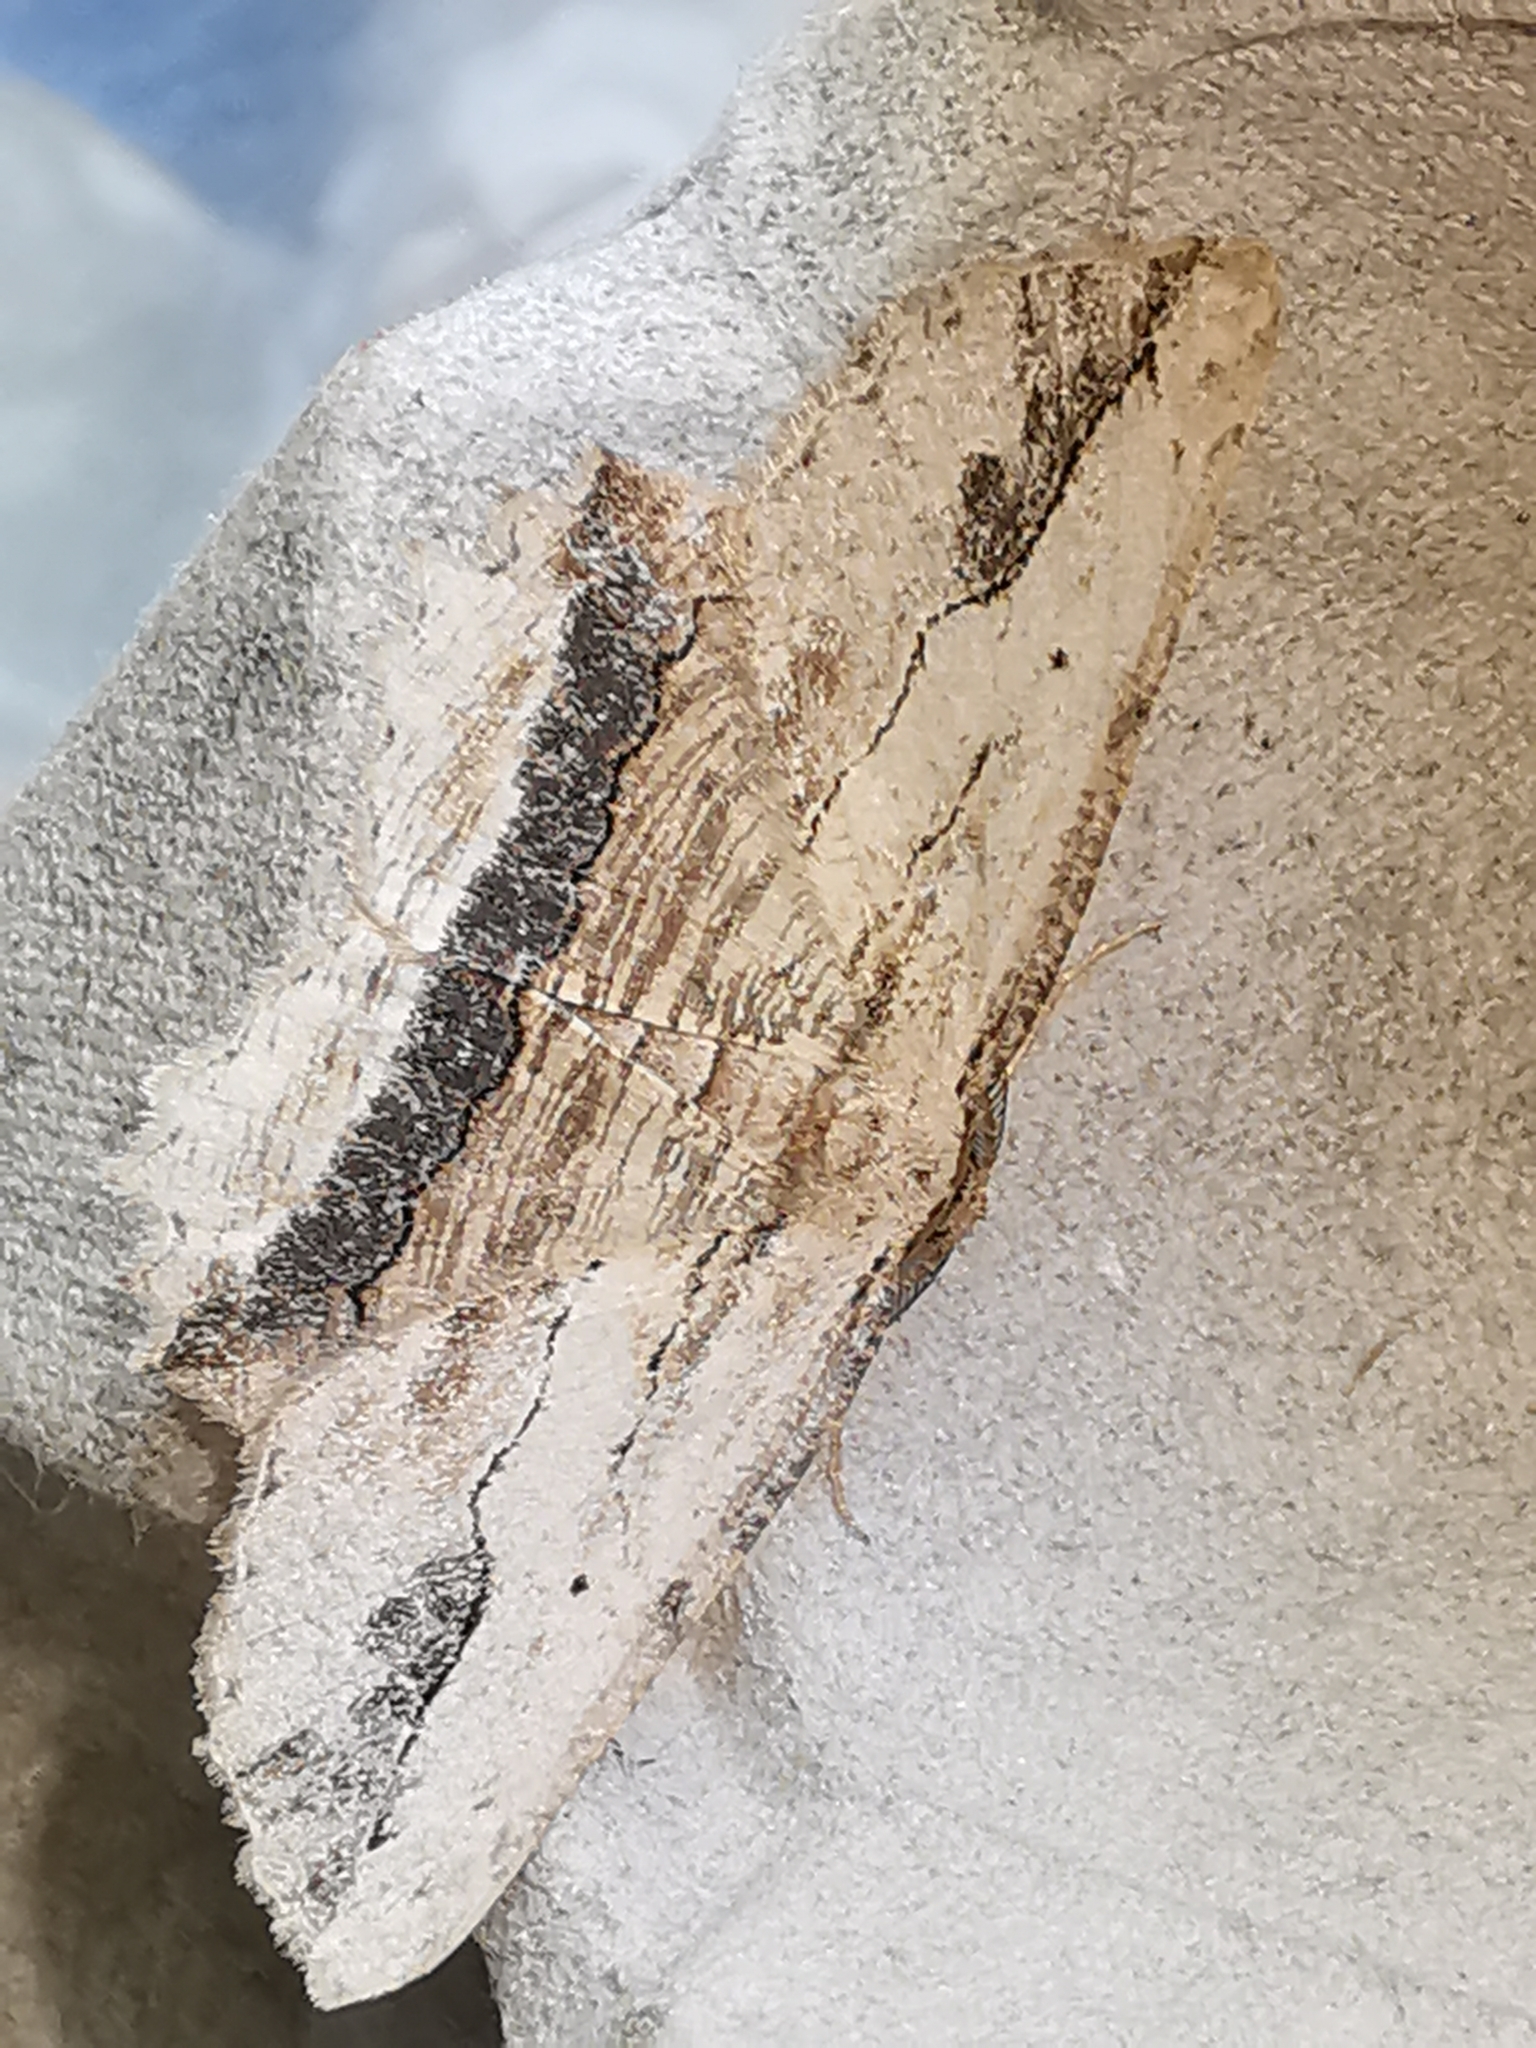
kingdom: Animalia
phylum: Arthropoda
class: Insecta
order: Lepidoptera
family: Geometridae
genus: Menophra
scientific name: Menophra abruptaria
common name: Waved umber
